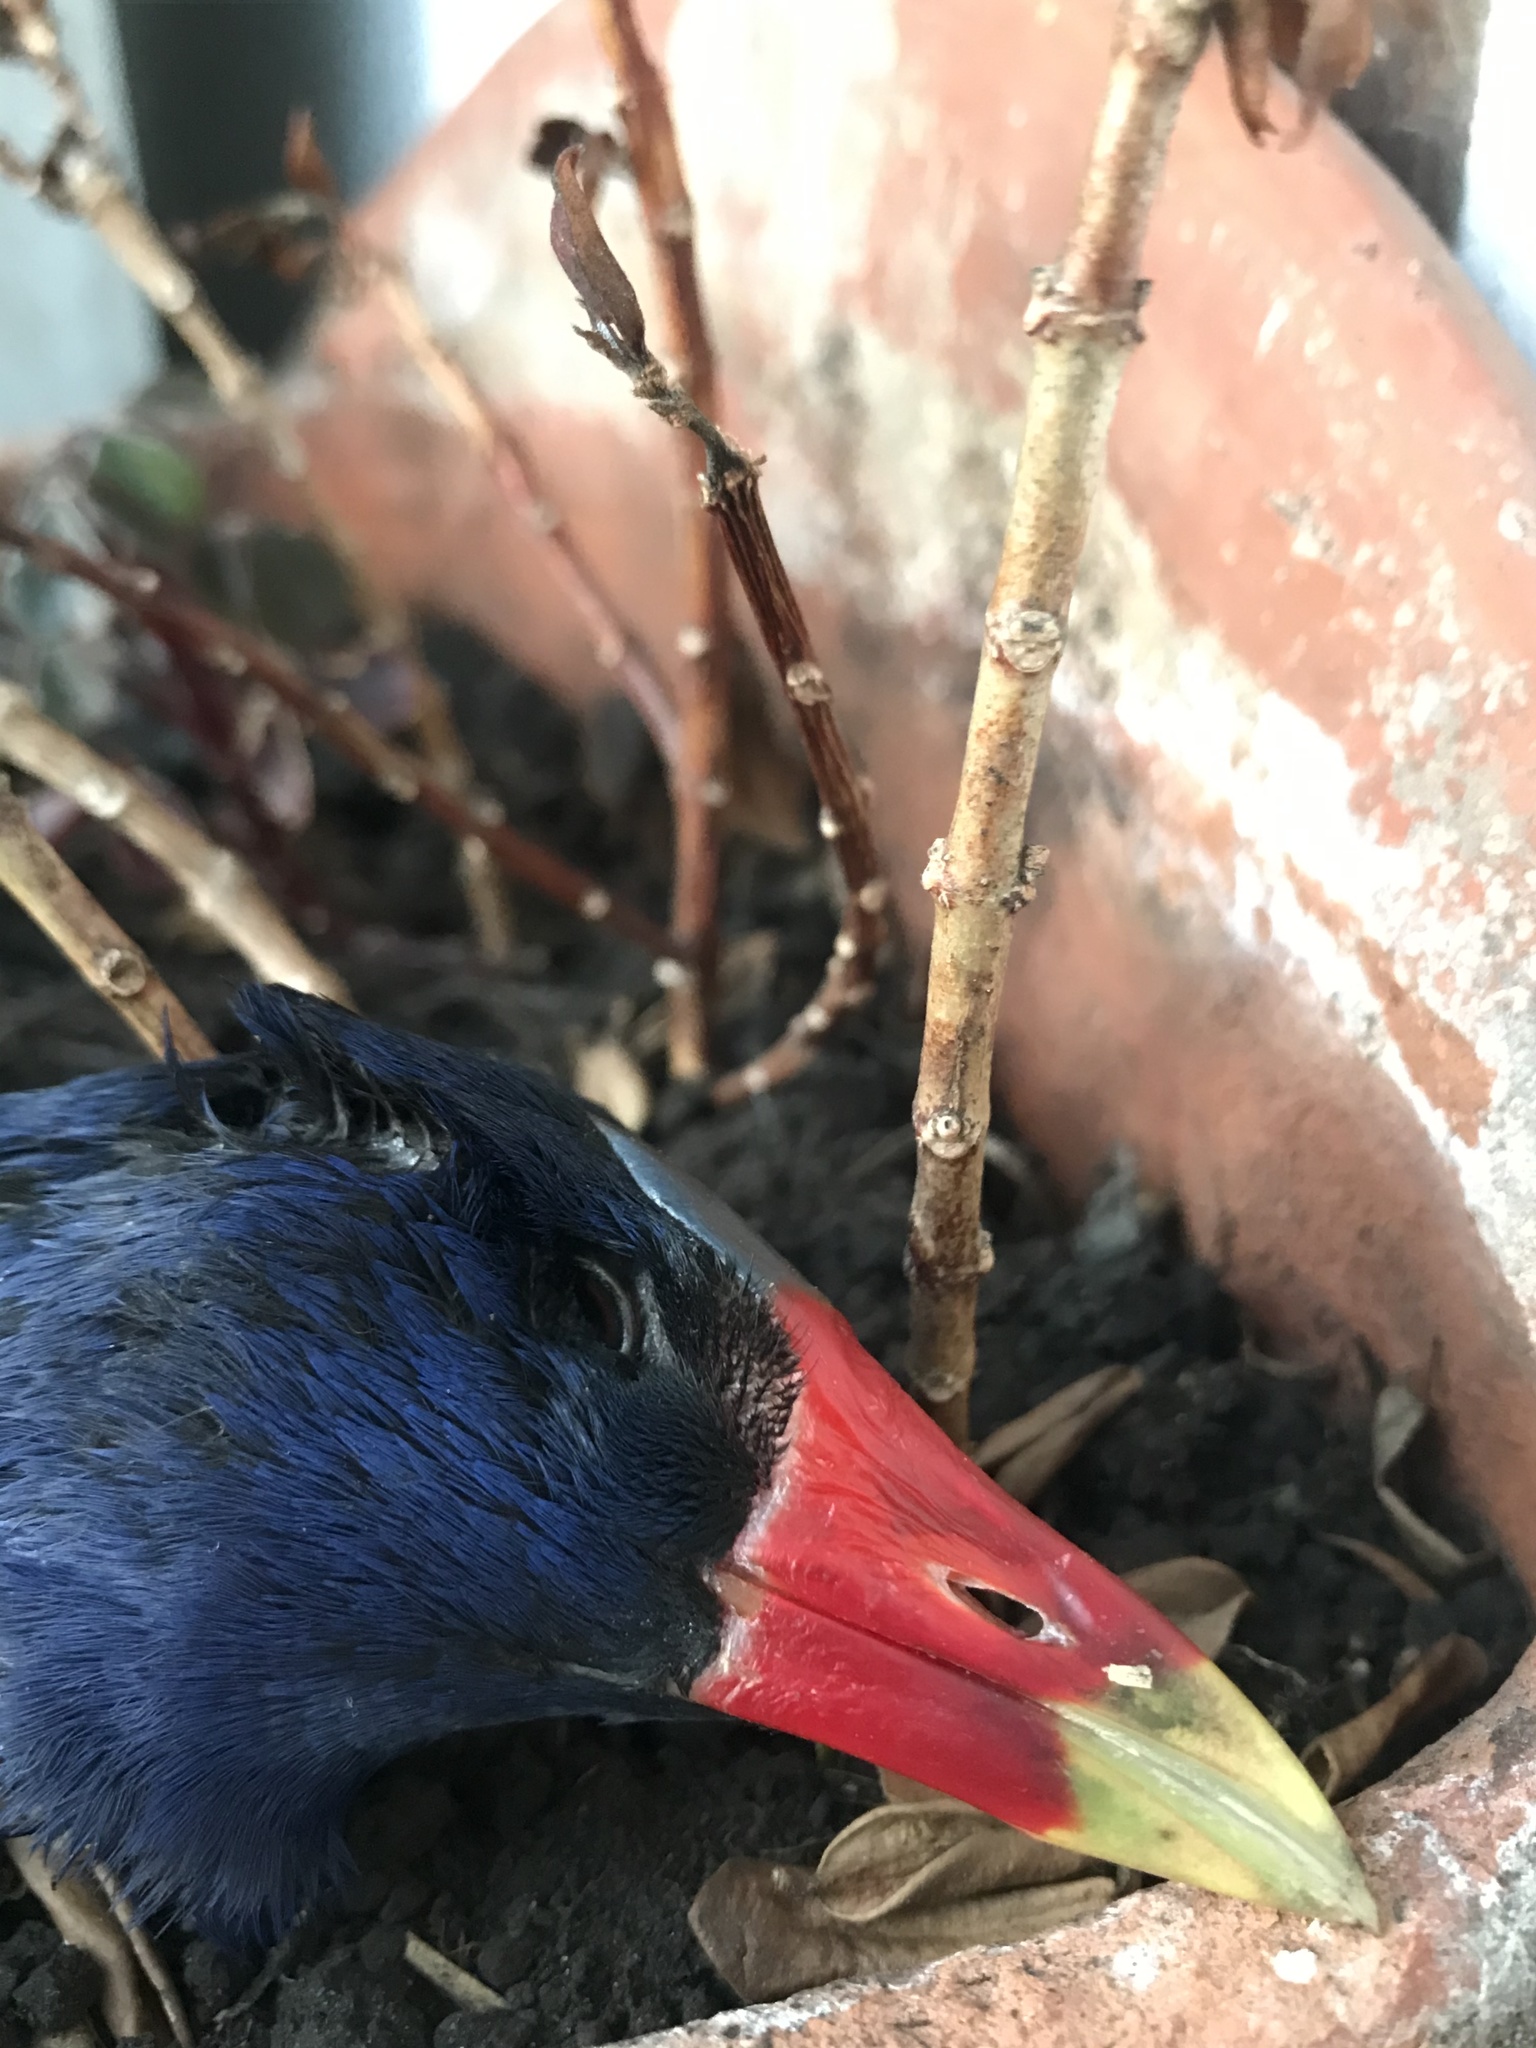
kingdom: Animalia
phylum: Chordata
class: Aves
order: Gruiformes
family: Rallidae
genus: Porphyrio
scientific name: Porphyrio martinica
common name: Purple gallinule
